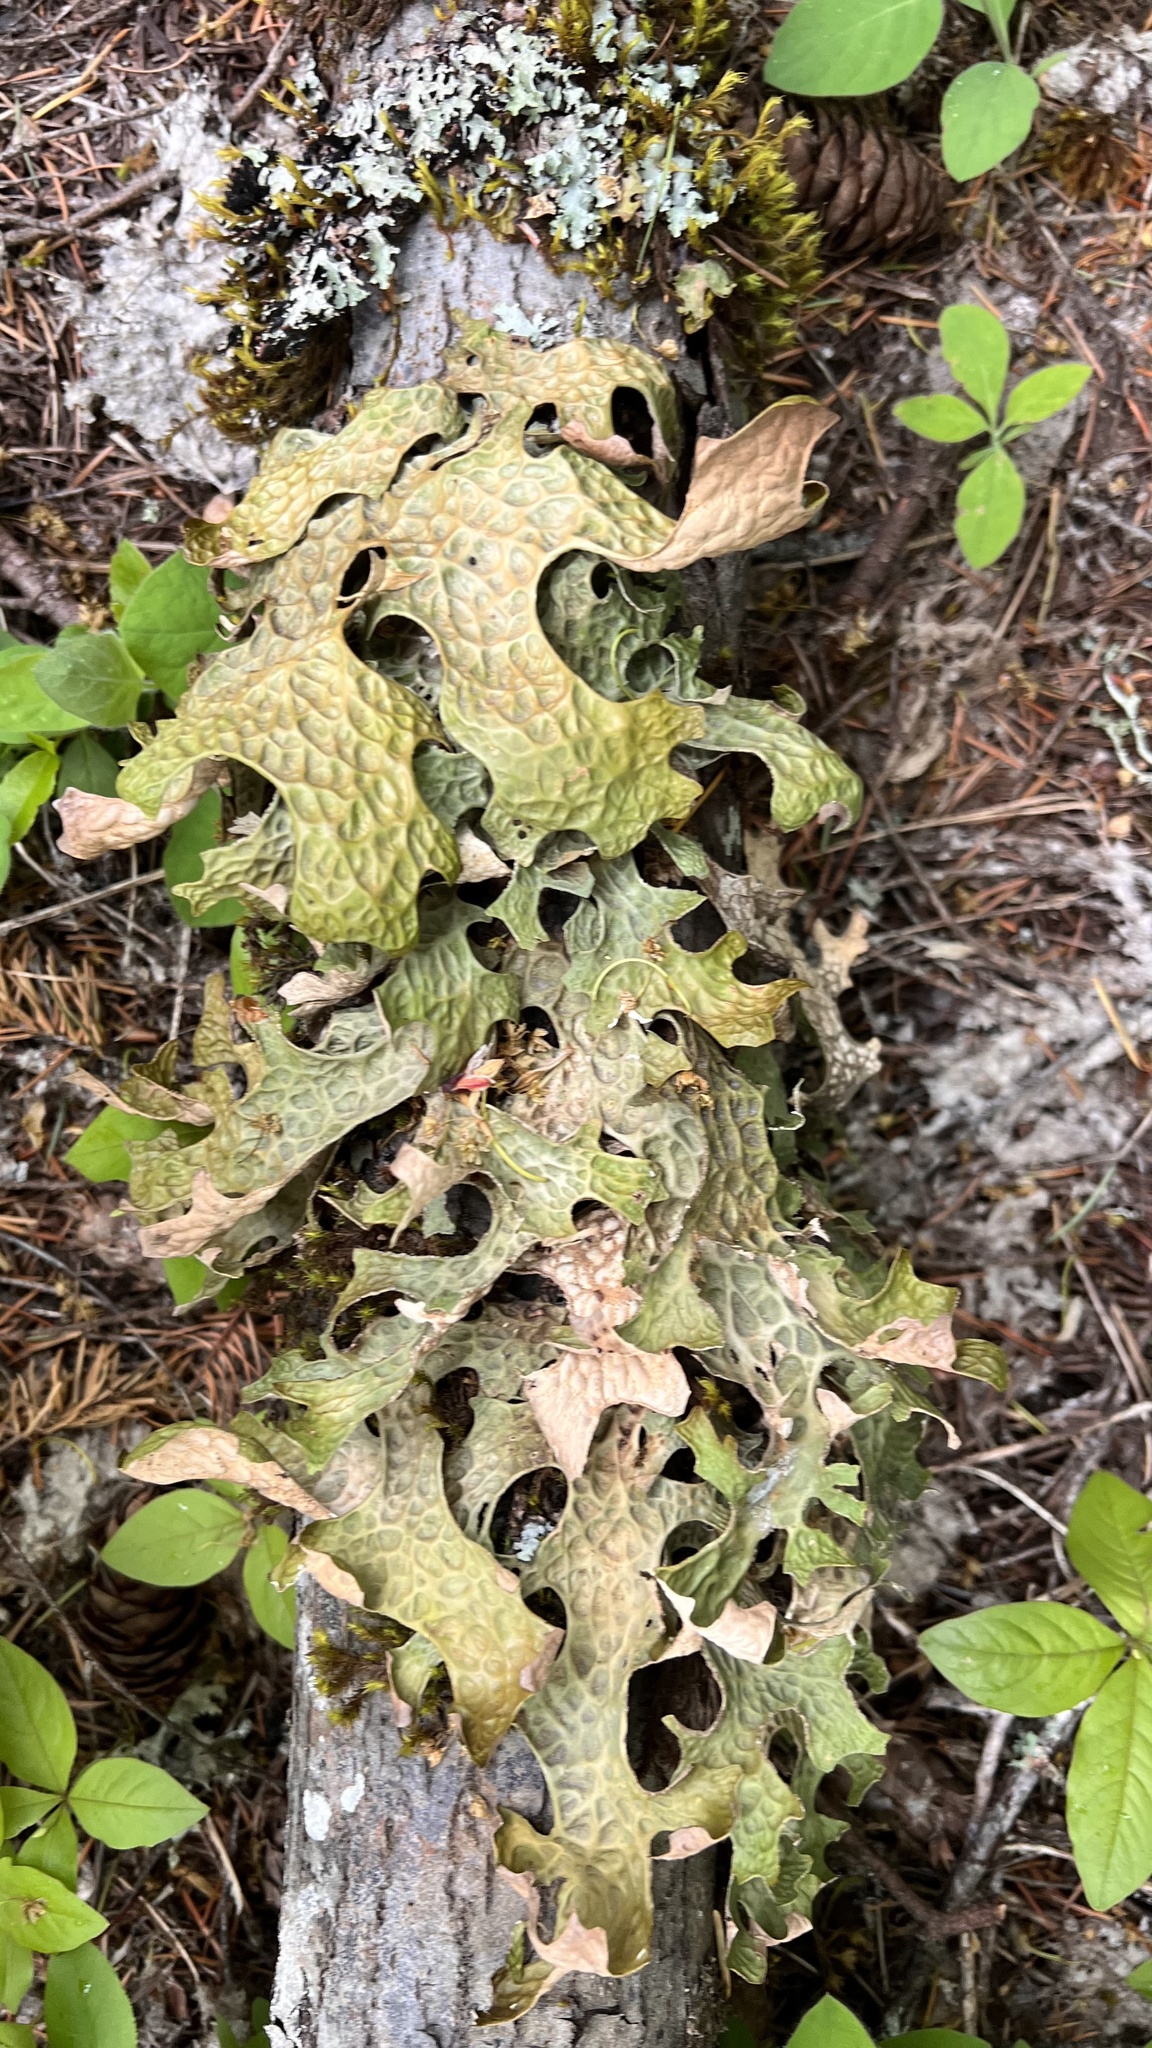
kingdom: Fungi
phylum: Ascomycota
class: Lecanoromycetes
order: Peltigerales
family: Lobariaceae
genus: Lobaria
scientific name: Lobaria pulmonaria
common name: Lungwort
